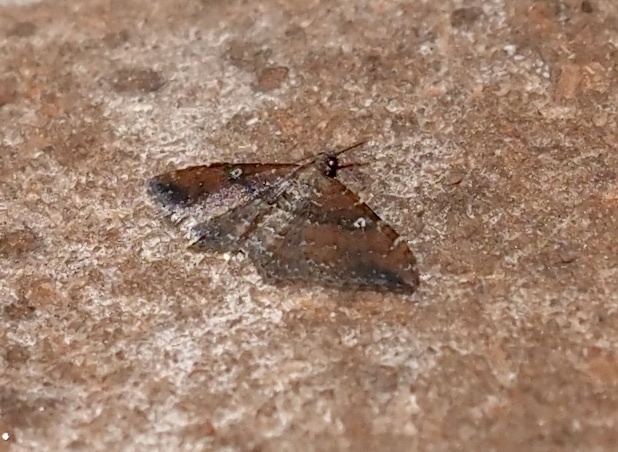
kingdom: Animalia
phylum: Arthropoda
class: Insecta
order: Lepidoptera
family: Geometridae
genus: Orthonama
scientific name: Orthonama obstipata
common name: The gem
